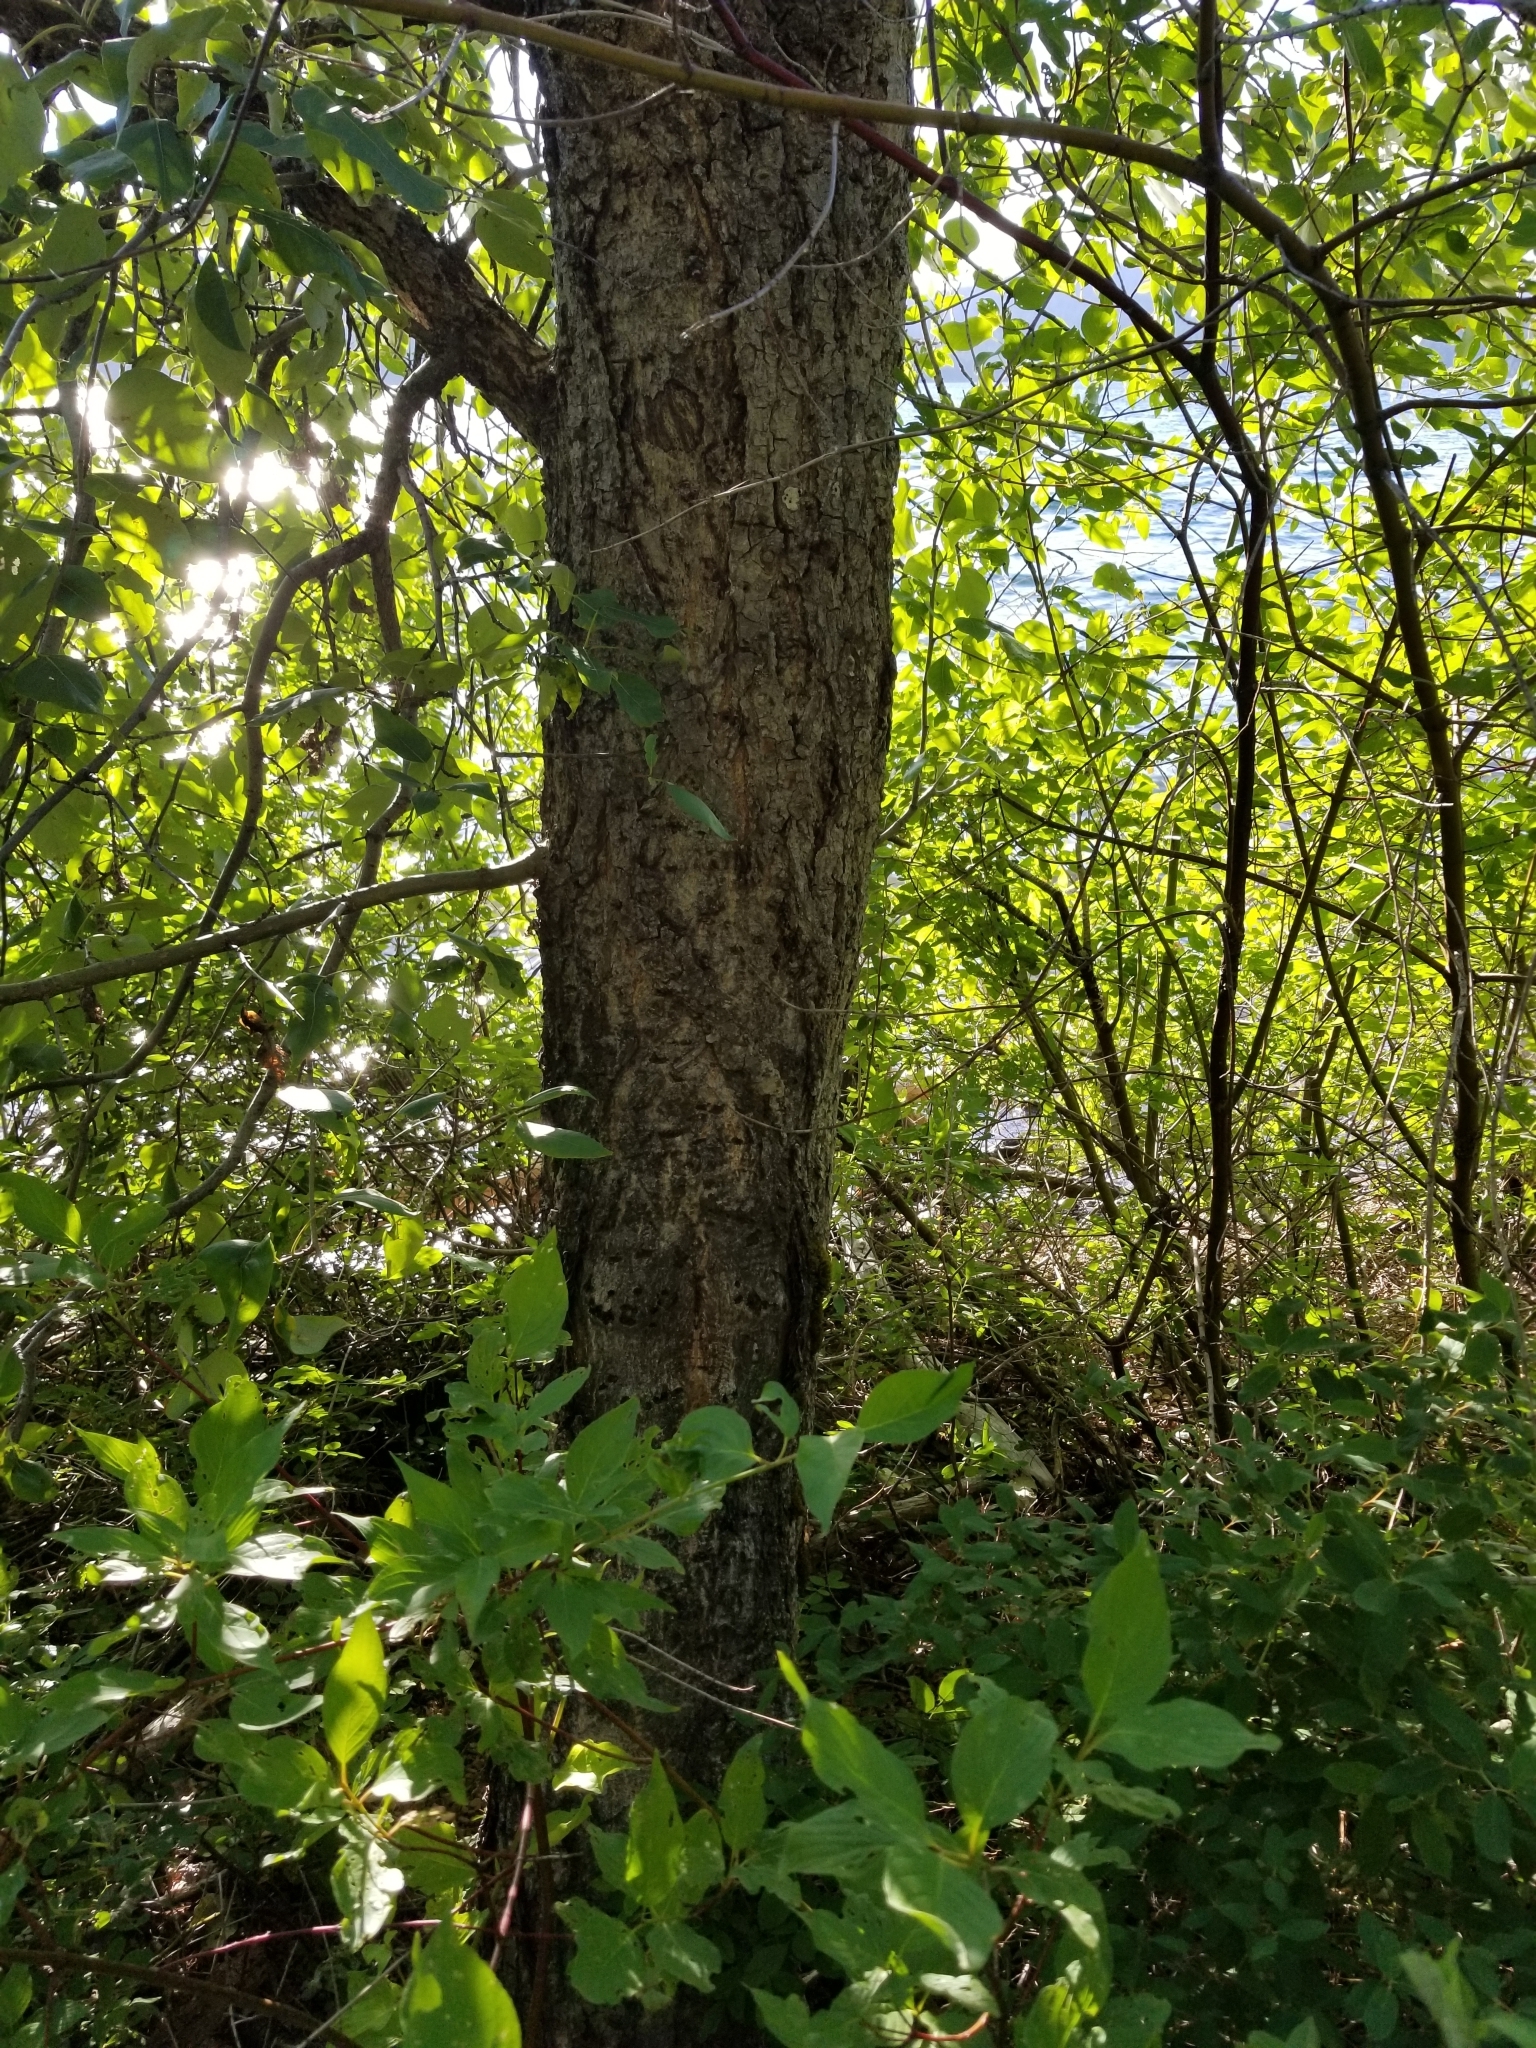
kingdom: Plantae
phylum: Tracheophyta
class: Magnoliopsida
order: Malpighiales
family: Salicaceae
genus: Populus
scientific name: Populus trichocarpa
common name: Black cottonwood
